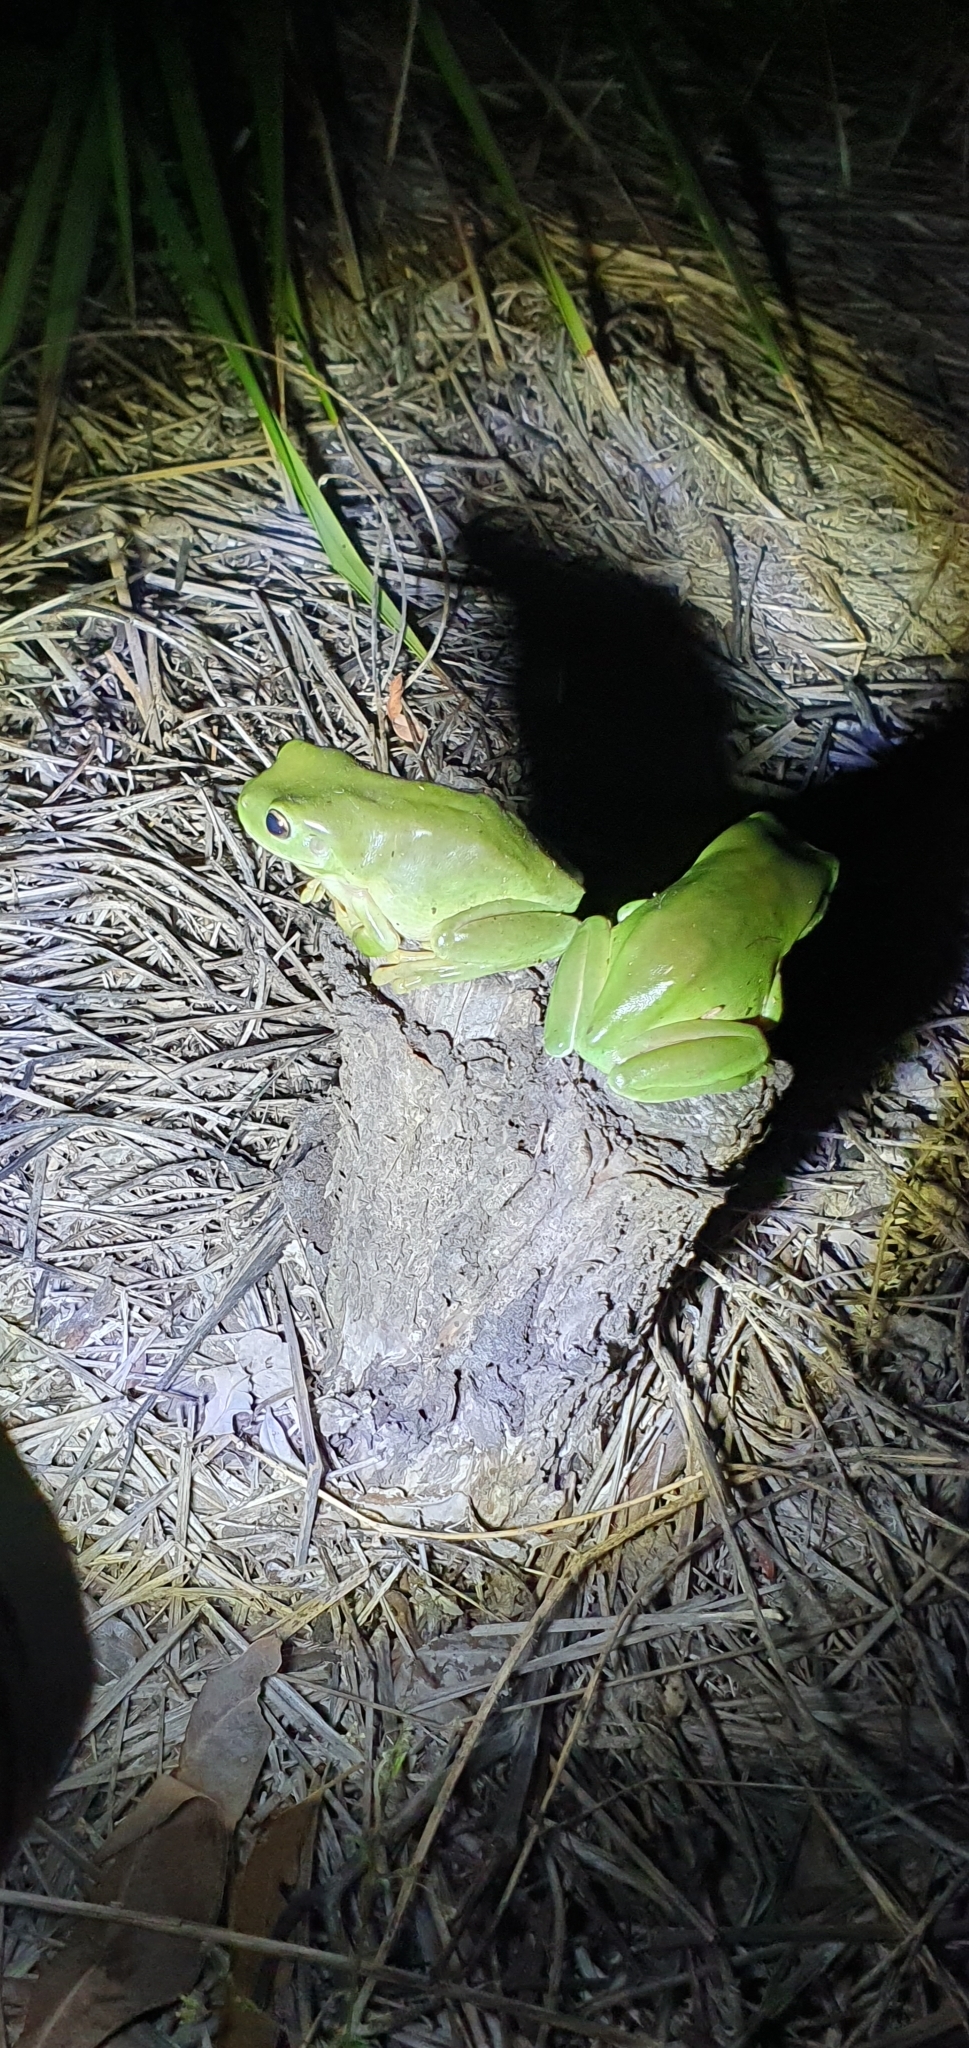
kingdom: Animalia
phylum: Chordata
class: Amphibia
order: Anura
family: Pelodryadidae
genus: Ranoidea
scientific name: Ranoidea caerulea
